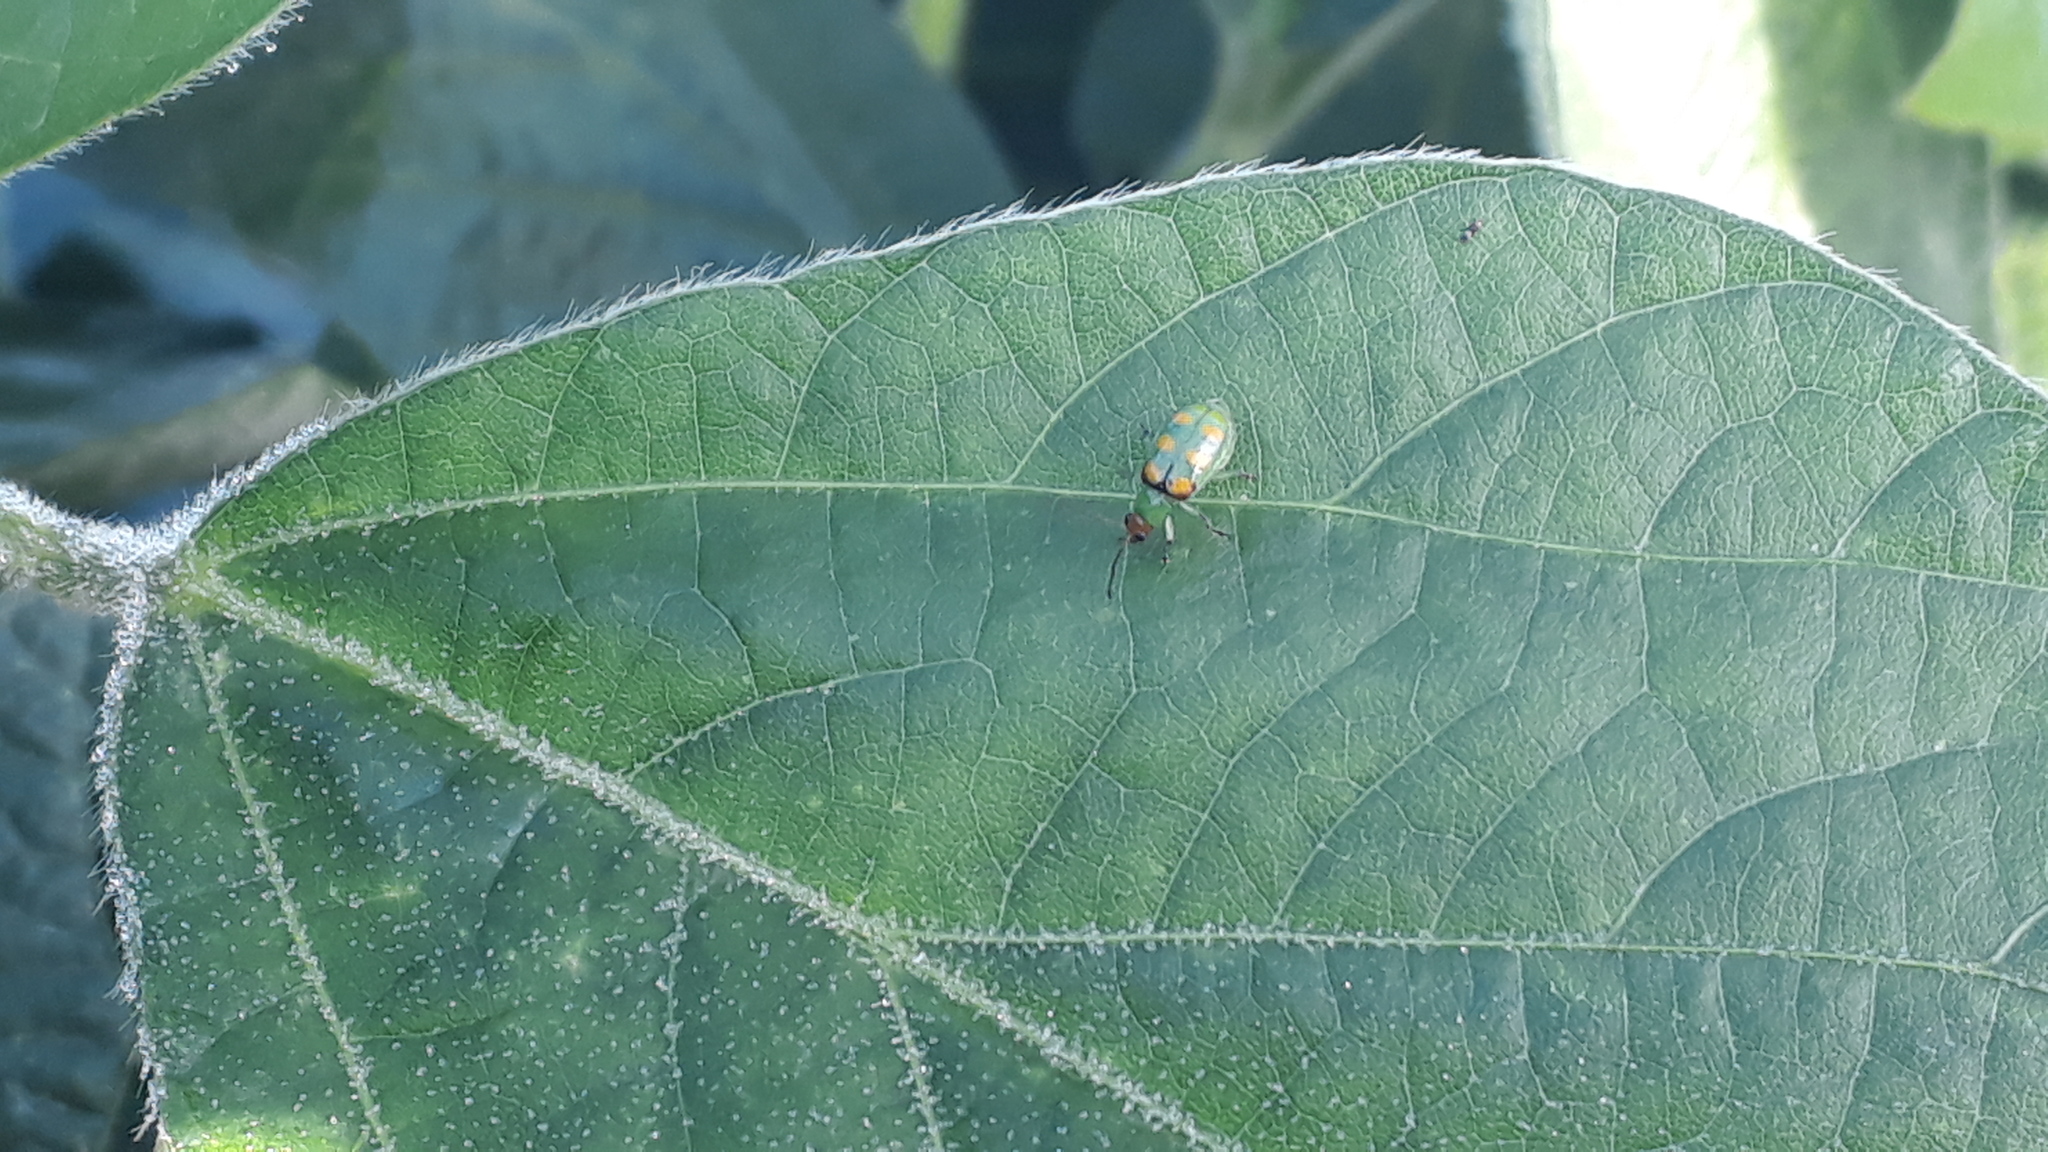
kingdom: Animalia
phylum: Arthropoda
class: Insecta
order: Coleoptera
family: Chrysomelidae
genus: Diabrotica
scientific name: Diabrotica speciosa
